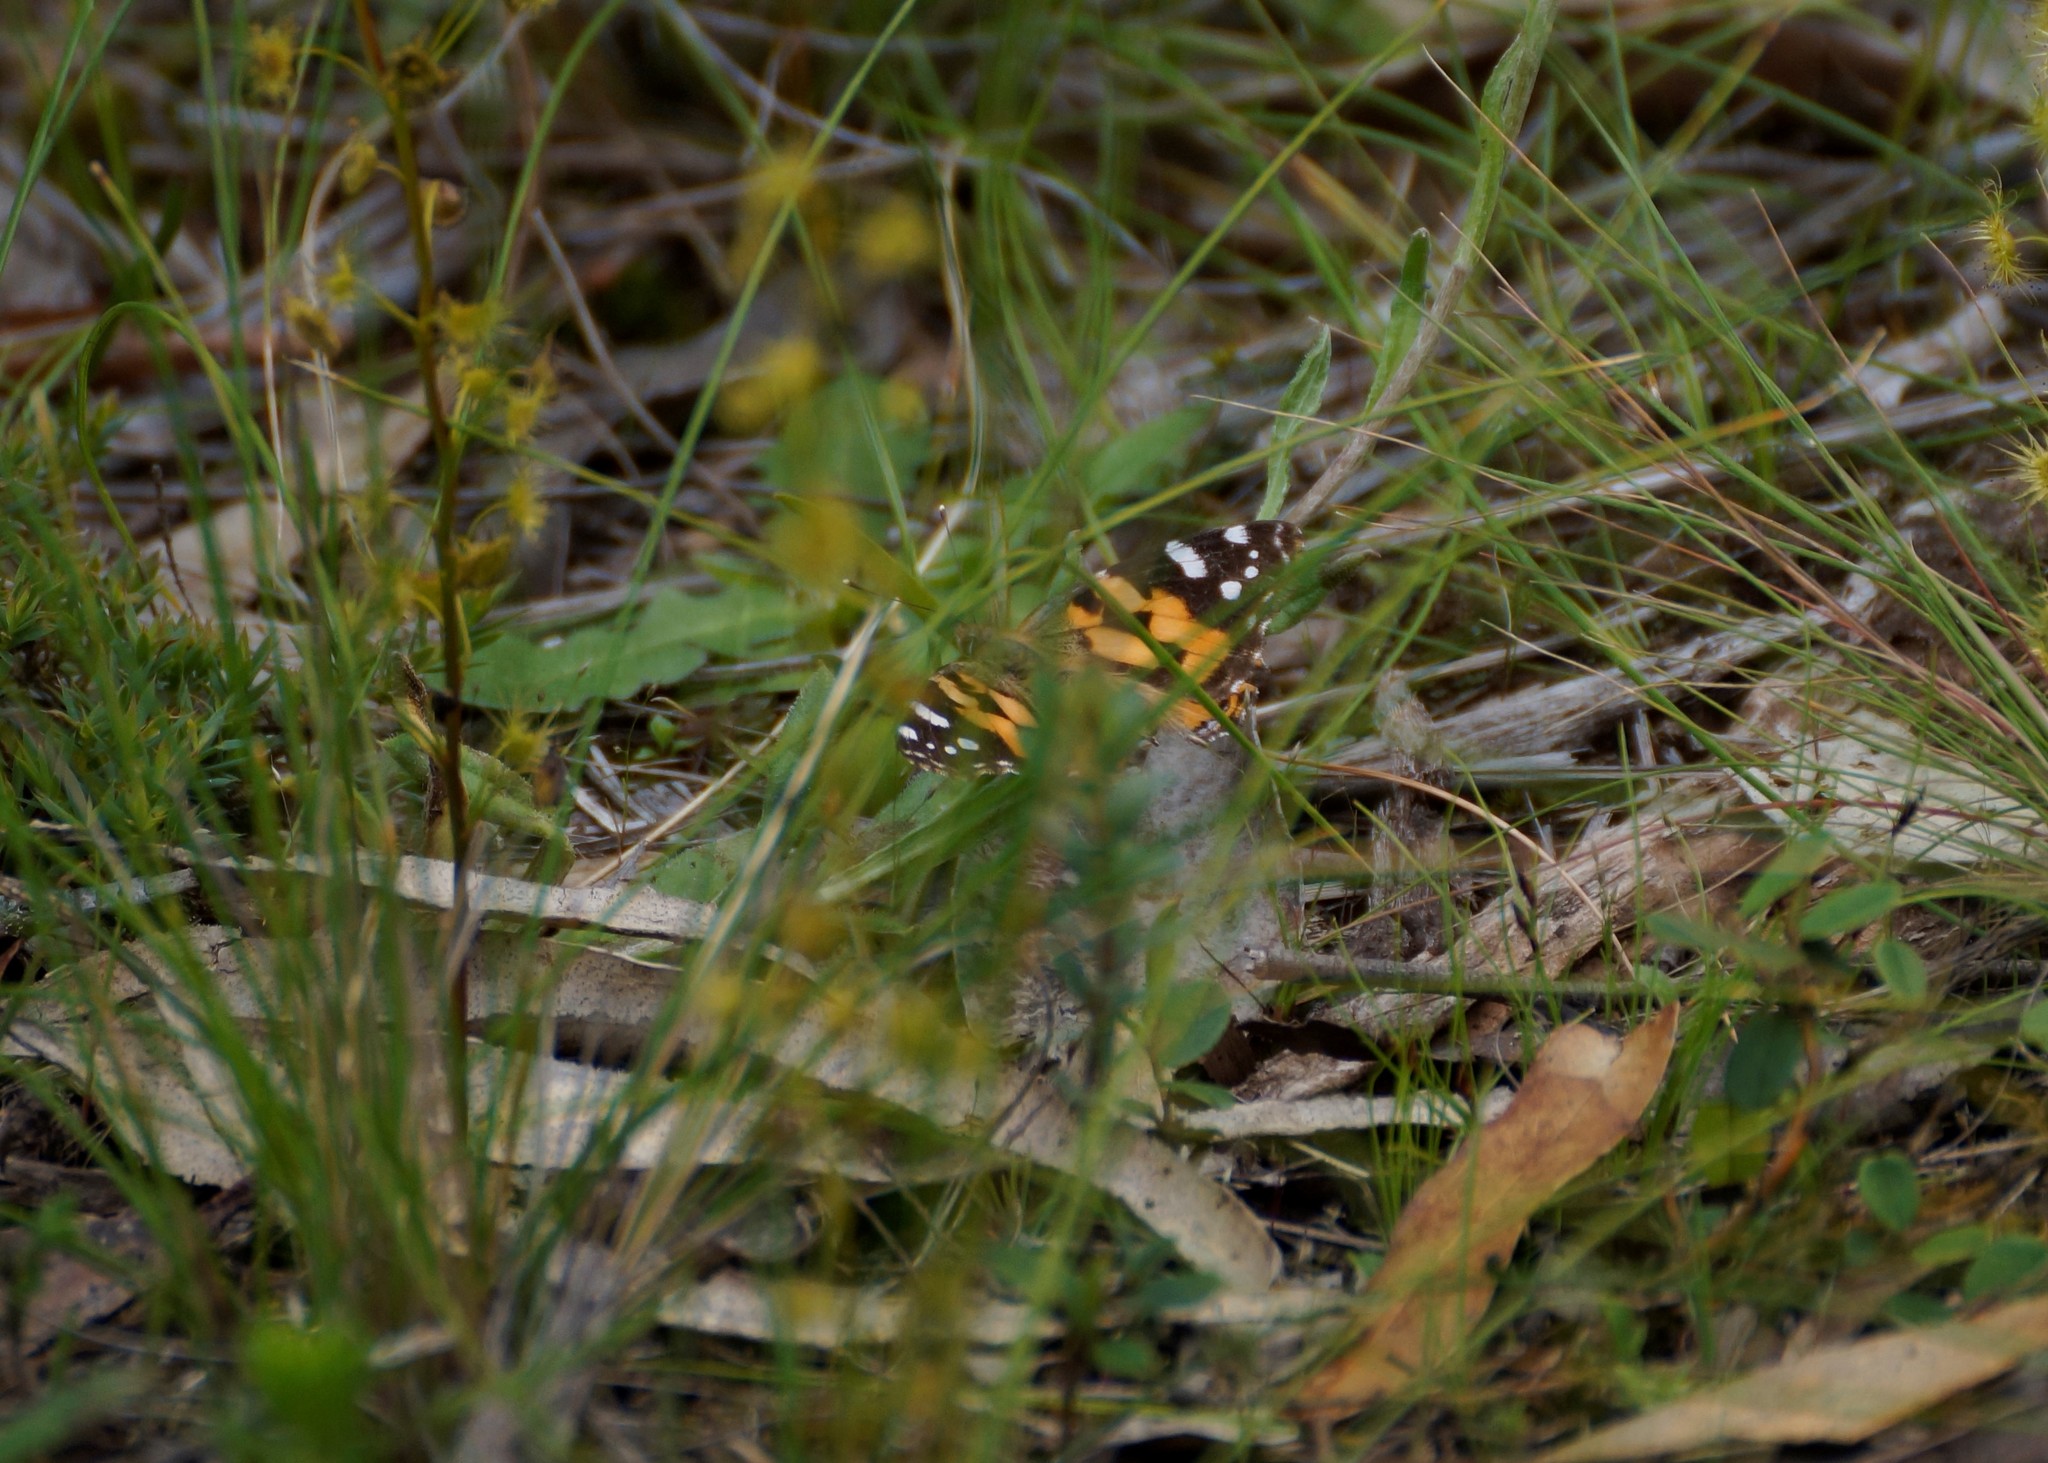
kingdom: Animalia
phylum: Arthropoda
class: Insecta
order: Lepidoptera
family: Nymphalidae
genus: Vanessa
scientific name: Vanessa kershawi
